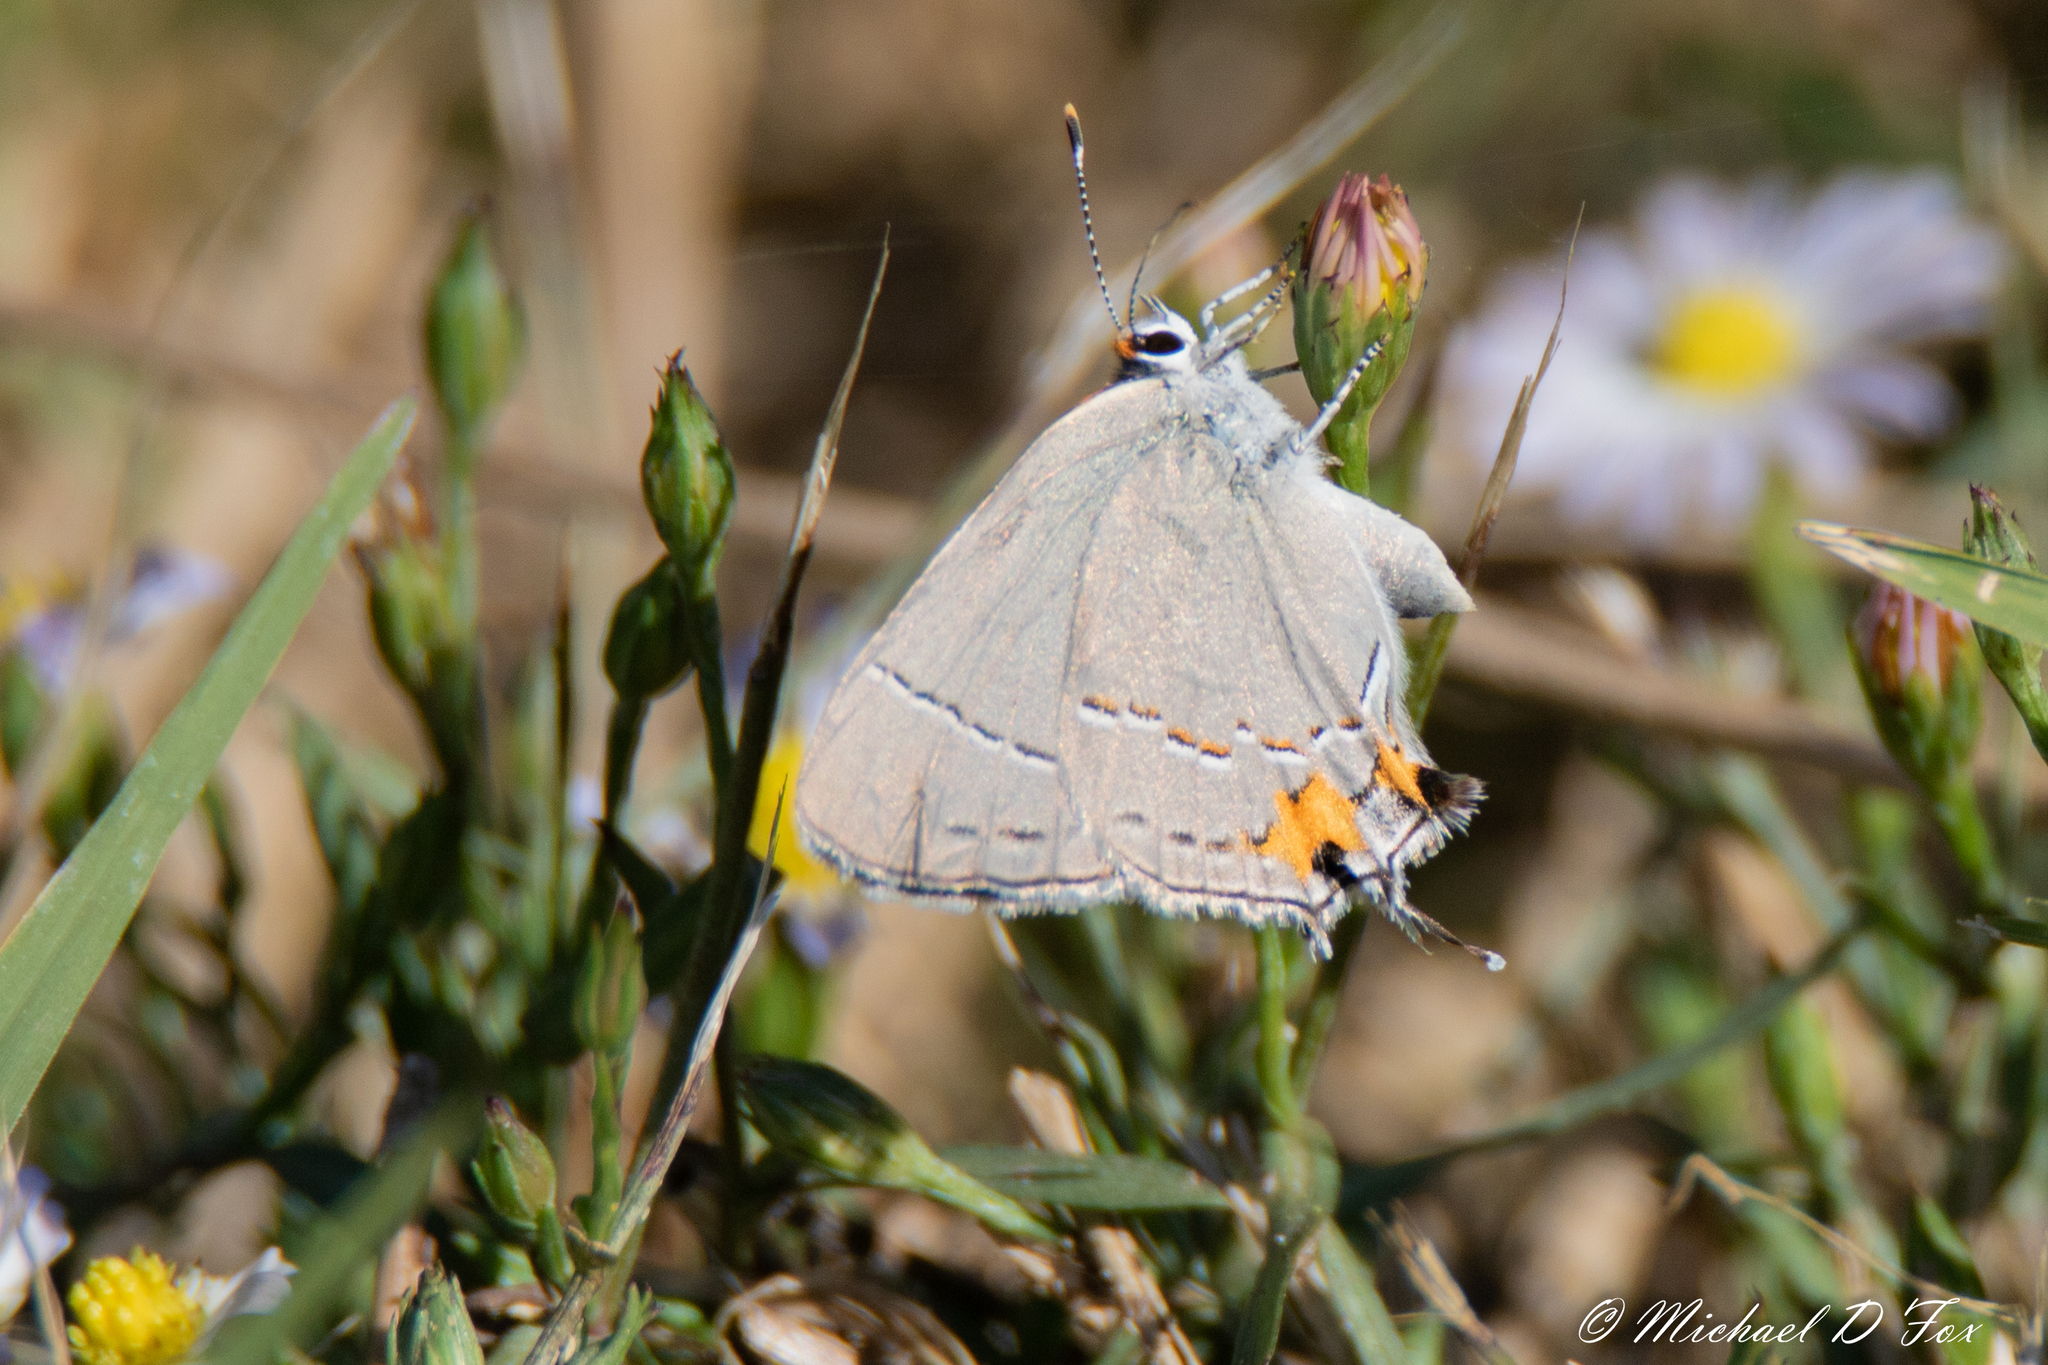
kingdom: Animalia
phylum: Arthropoda
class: Insecta
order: Lepidoptera
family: Lycaenidae
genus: Strymon
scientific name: Strymon melinus
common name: Gray hairstreak
